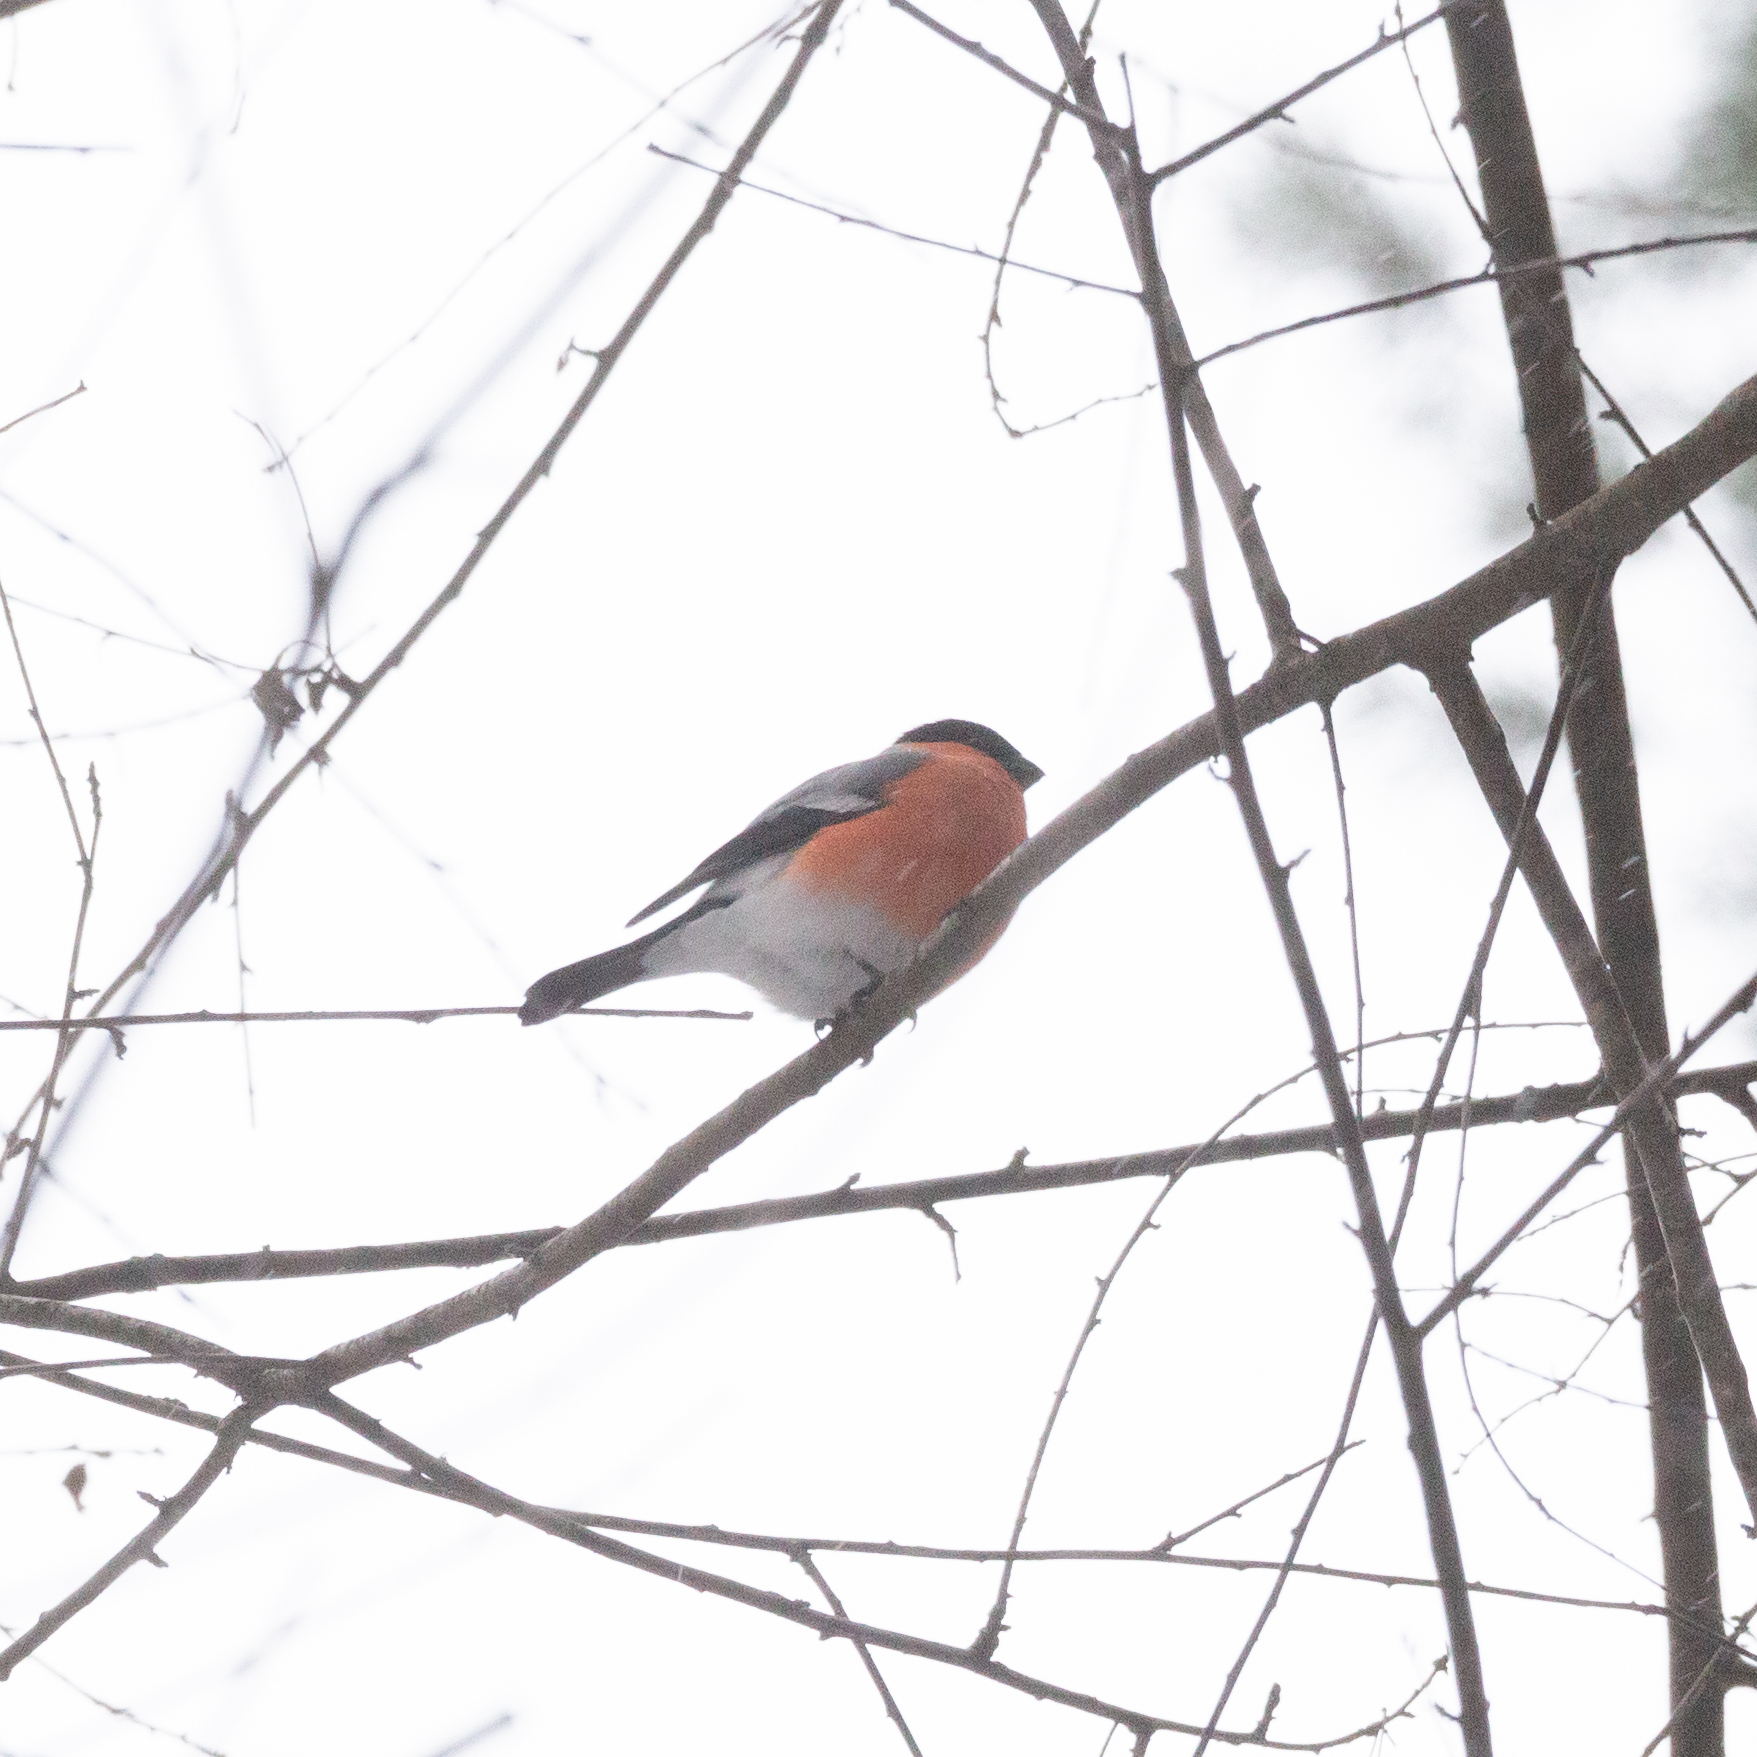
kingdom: Animalia
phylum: Chordata
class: Aves
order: Passeriformes
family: Fringillidae
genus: Pyrrhula
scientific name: Pyrrhula pyrrhula
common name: Eurasian bullfinch
